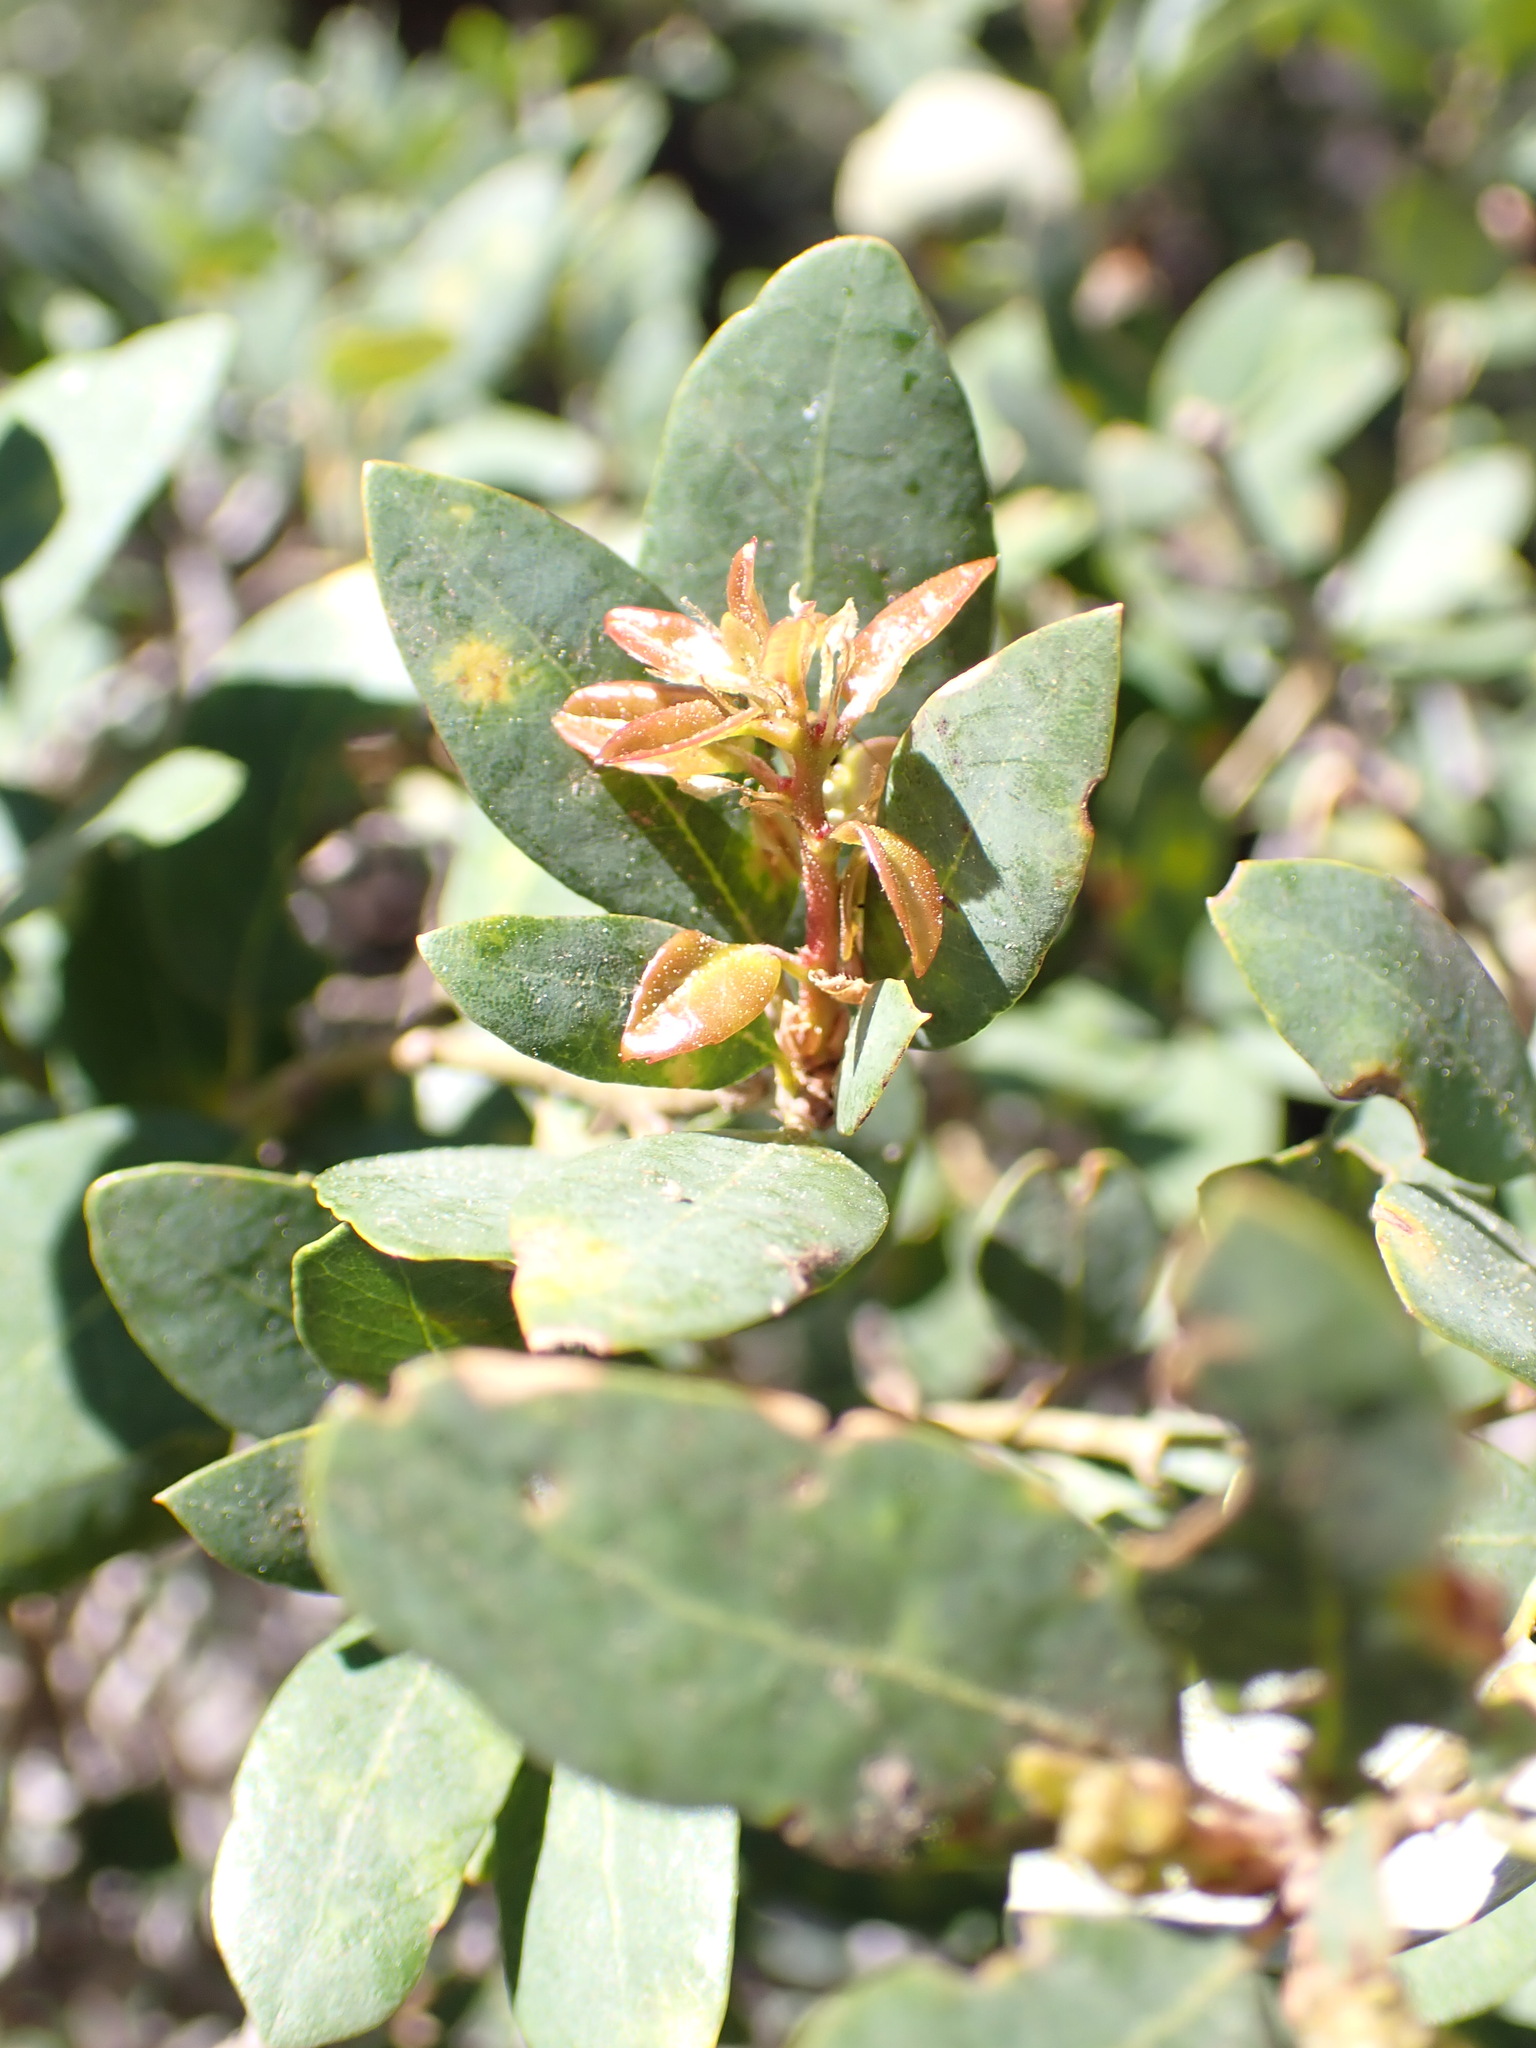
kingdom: Plantae
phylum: Tracheophyta
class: Magnoliopsida
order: Fagales
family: Fagaceae
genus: Quercus
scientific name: Quercus vacciniifolia
